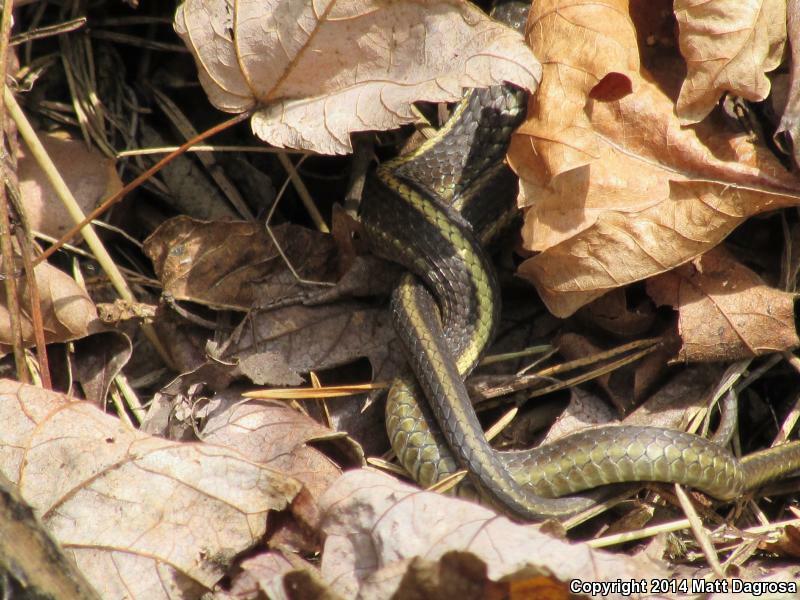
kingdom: Animalia
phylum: Chordata
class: Squamata
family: Colubridae
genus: Thamnophis
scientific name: Thamnophis ordinoides
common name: Northwestern garter snake
